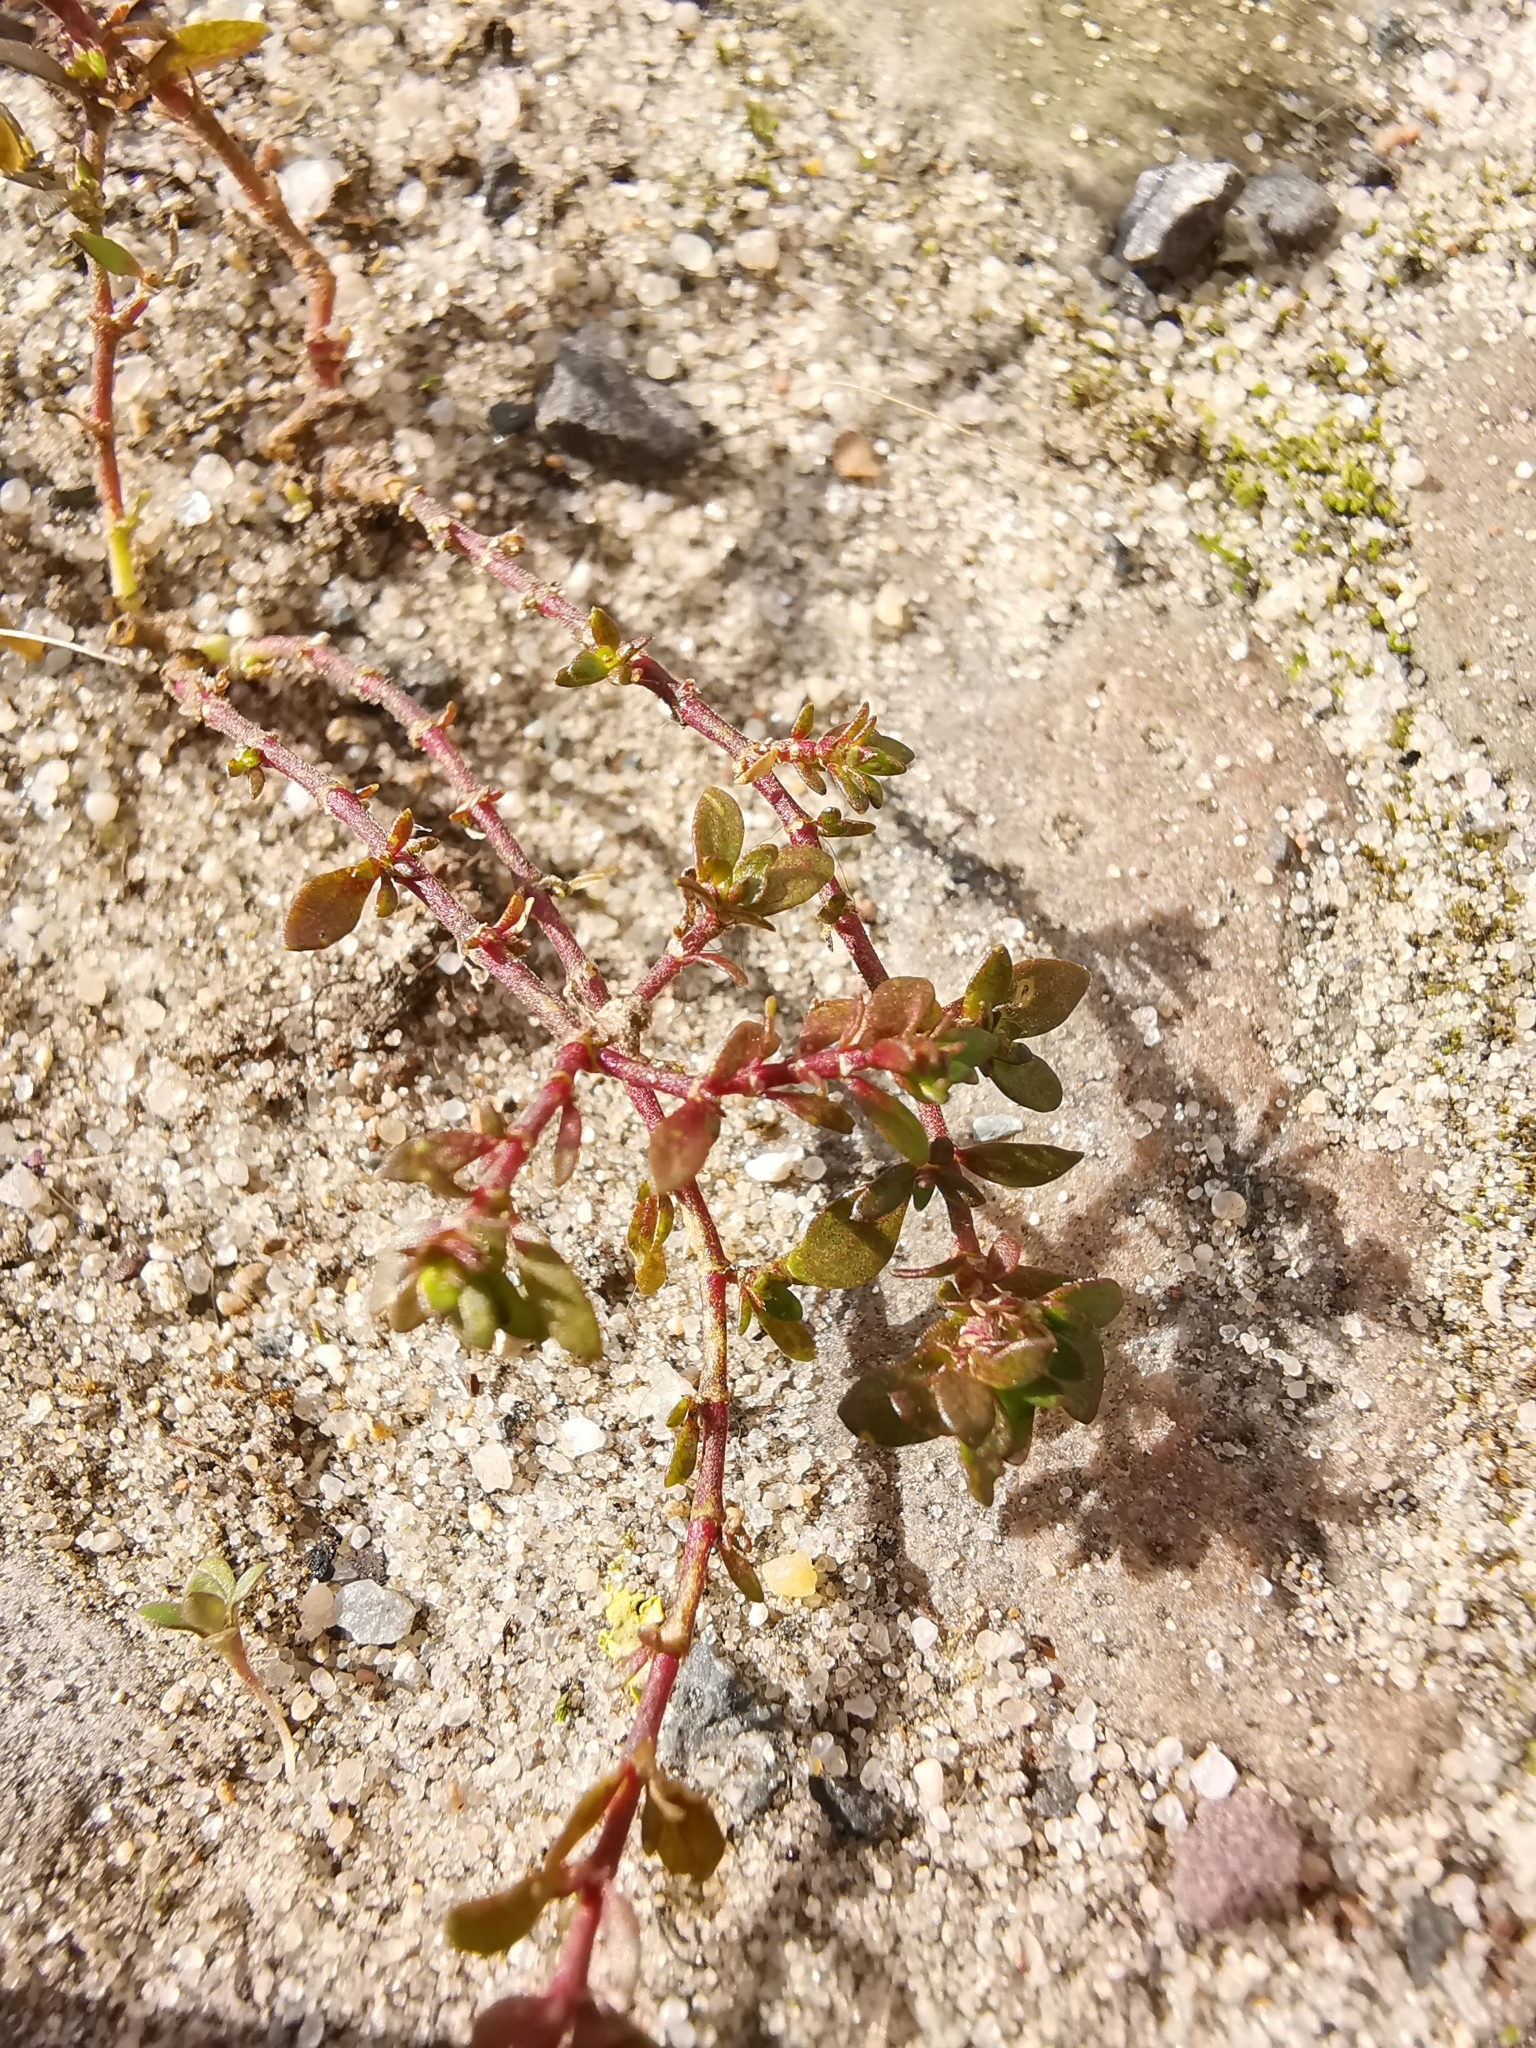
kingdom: Plantae
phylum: Tracheophyta
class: Magnoliopsida
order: Caryophyllales
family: Caryophyllaceae
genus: Herniaria
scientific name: Herniaria glabra
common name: Smooth rupturewort
